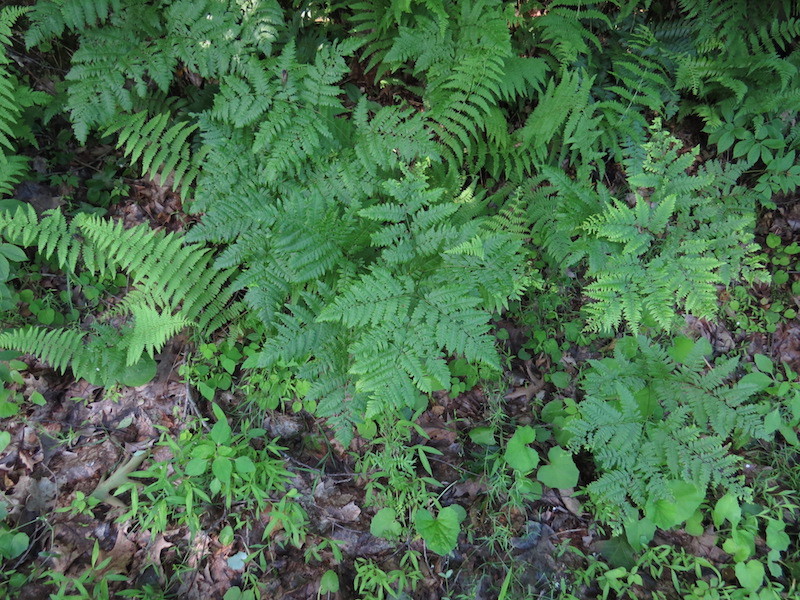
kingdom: Plantae
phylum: Tracheophyta
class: Polypodiopsida
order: Polypodiales
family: Dennstaedtiaceae
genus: Pteridium
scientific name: Pteridium aquilinum
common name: Bracken
